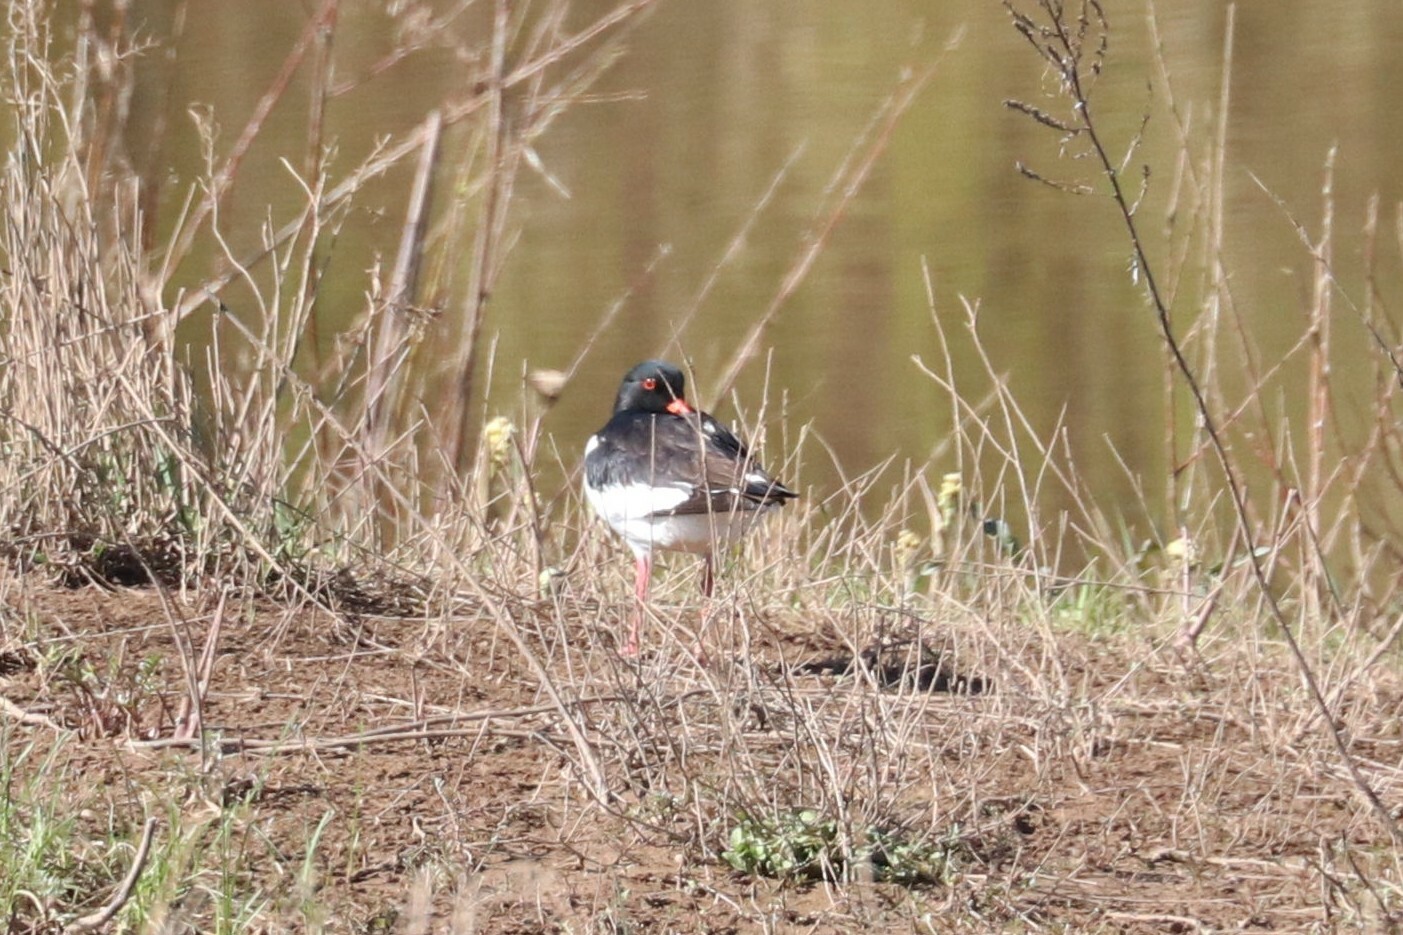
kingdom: Animalia
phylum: Chordata
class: Aves
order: Charadriiformes
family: Haematopodidae
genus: Haematopus
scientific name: Haematopus ostralegus
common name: Eurasian oystercatcher
